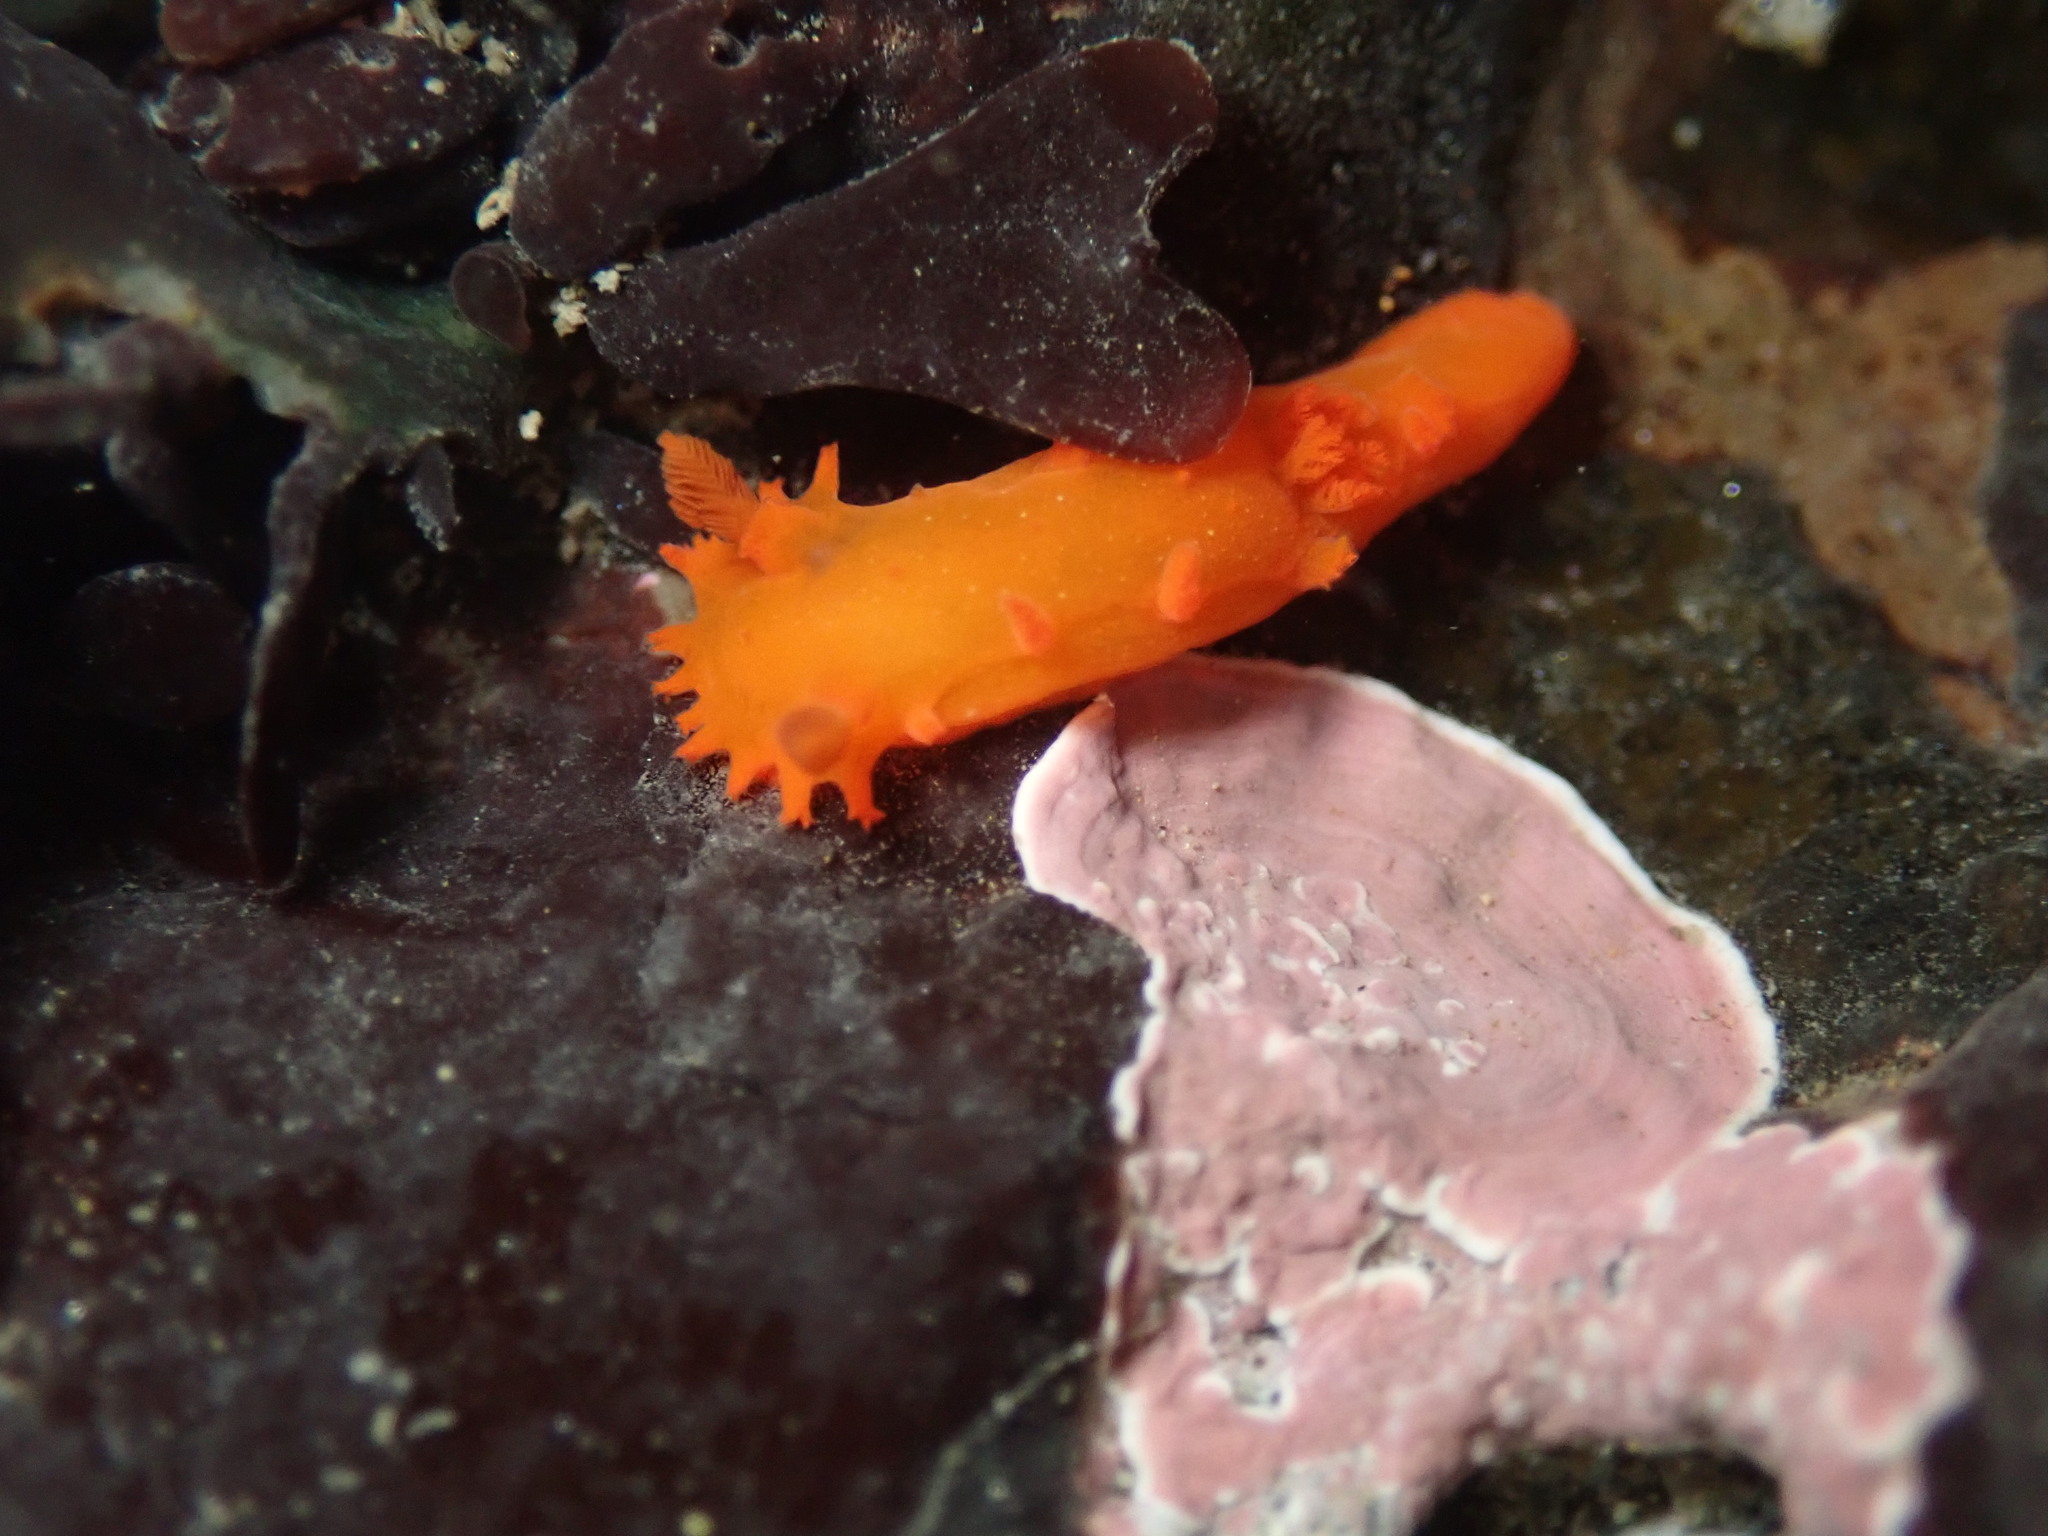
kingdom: Animalia
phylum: Mollusca
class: Gastropoda
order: Nudibranchia
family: Polyceridae
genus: Triopha
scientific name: Triopha maculata
